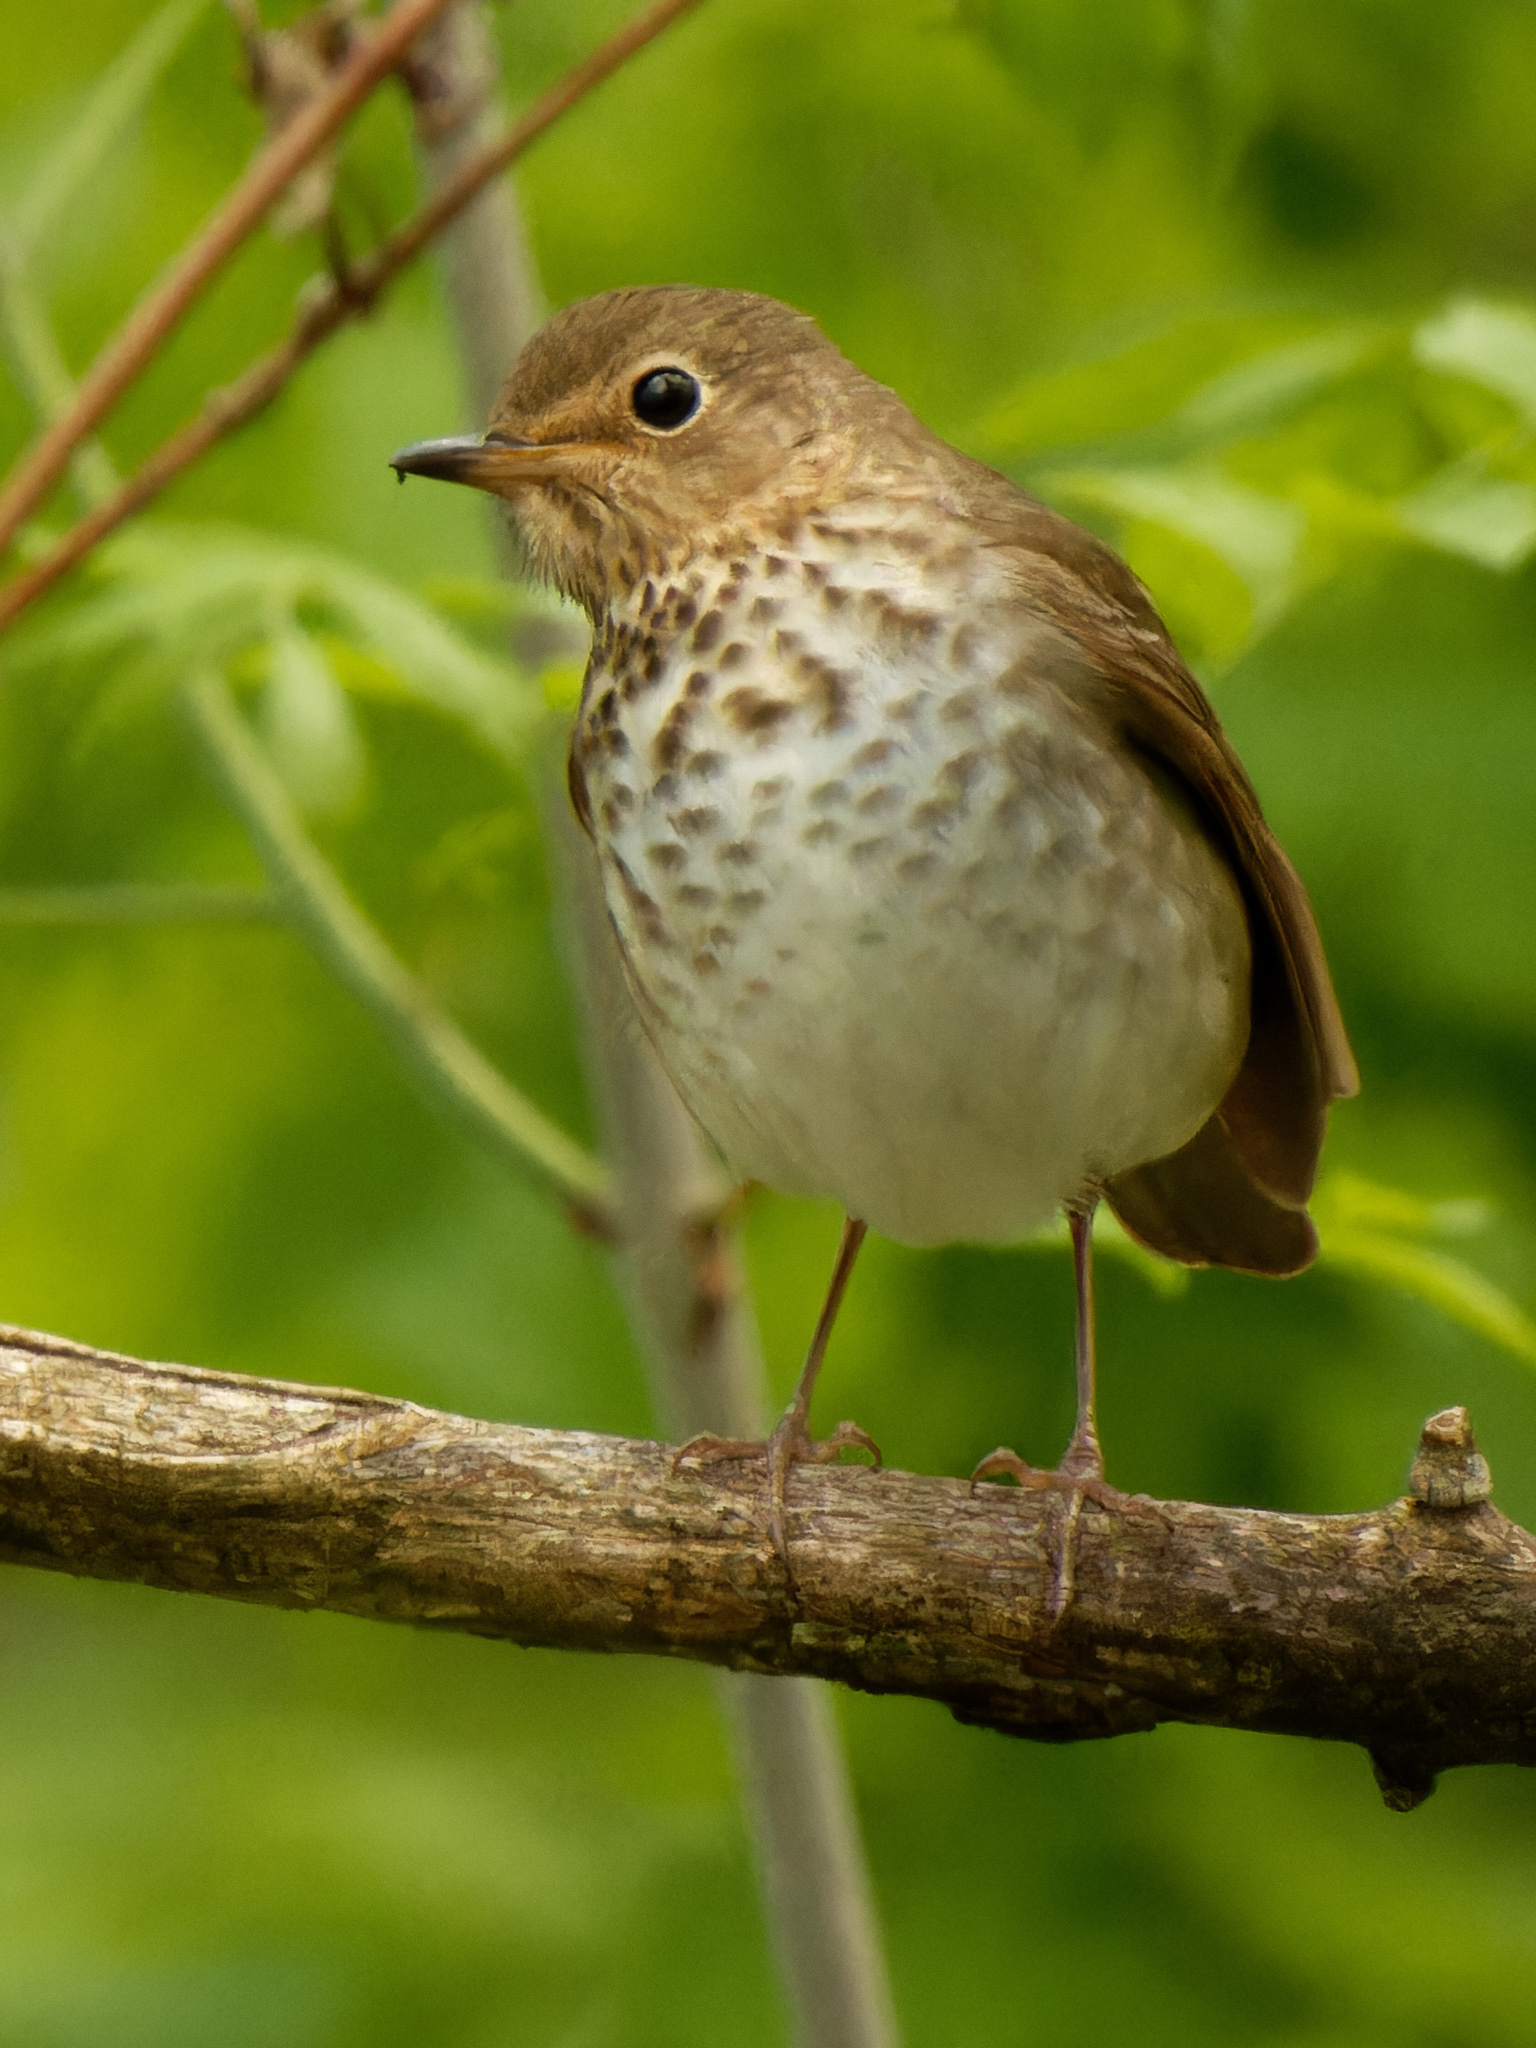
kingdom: Animalia
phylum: Chordata
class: Aves
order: Passeriformes
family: Turdidae
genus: Catharus
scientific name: Catharus ustulatus
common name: Swainson's thrush
